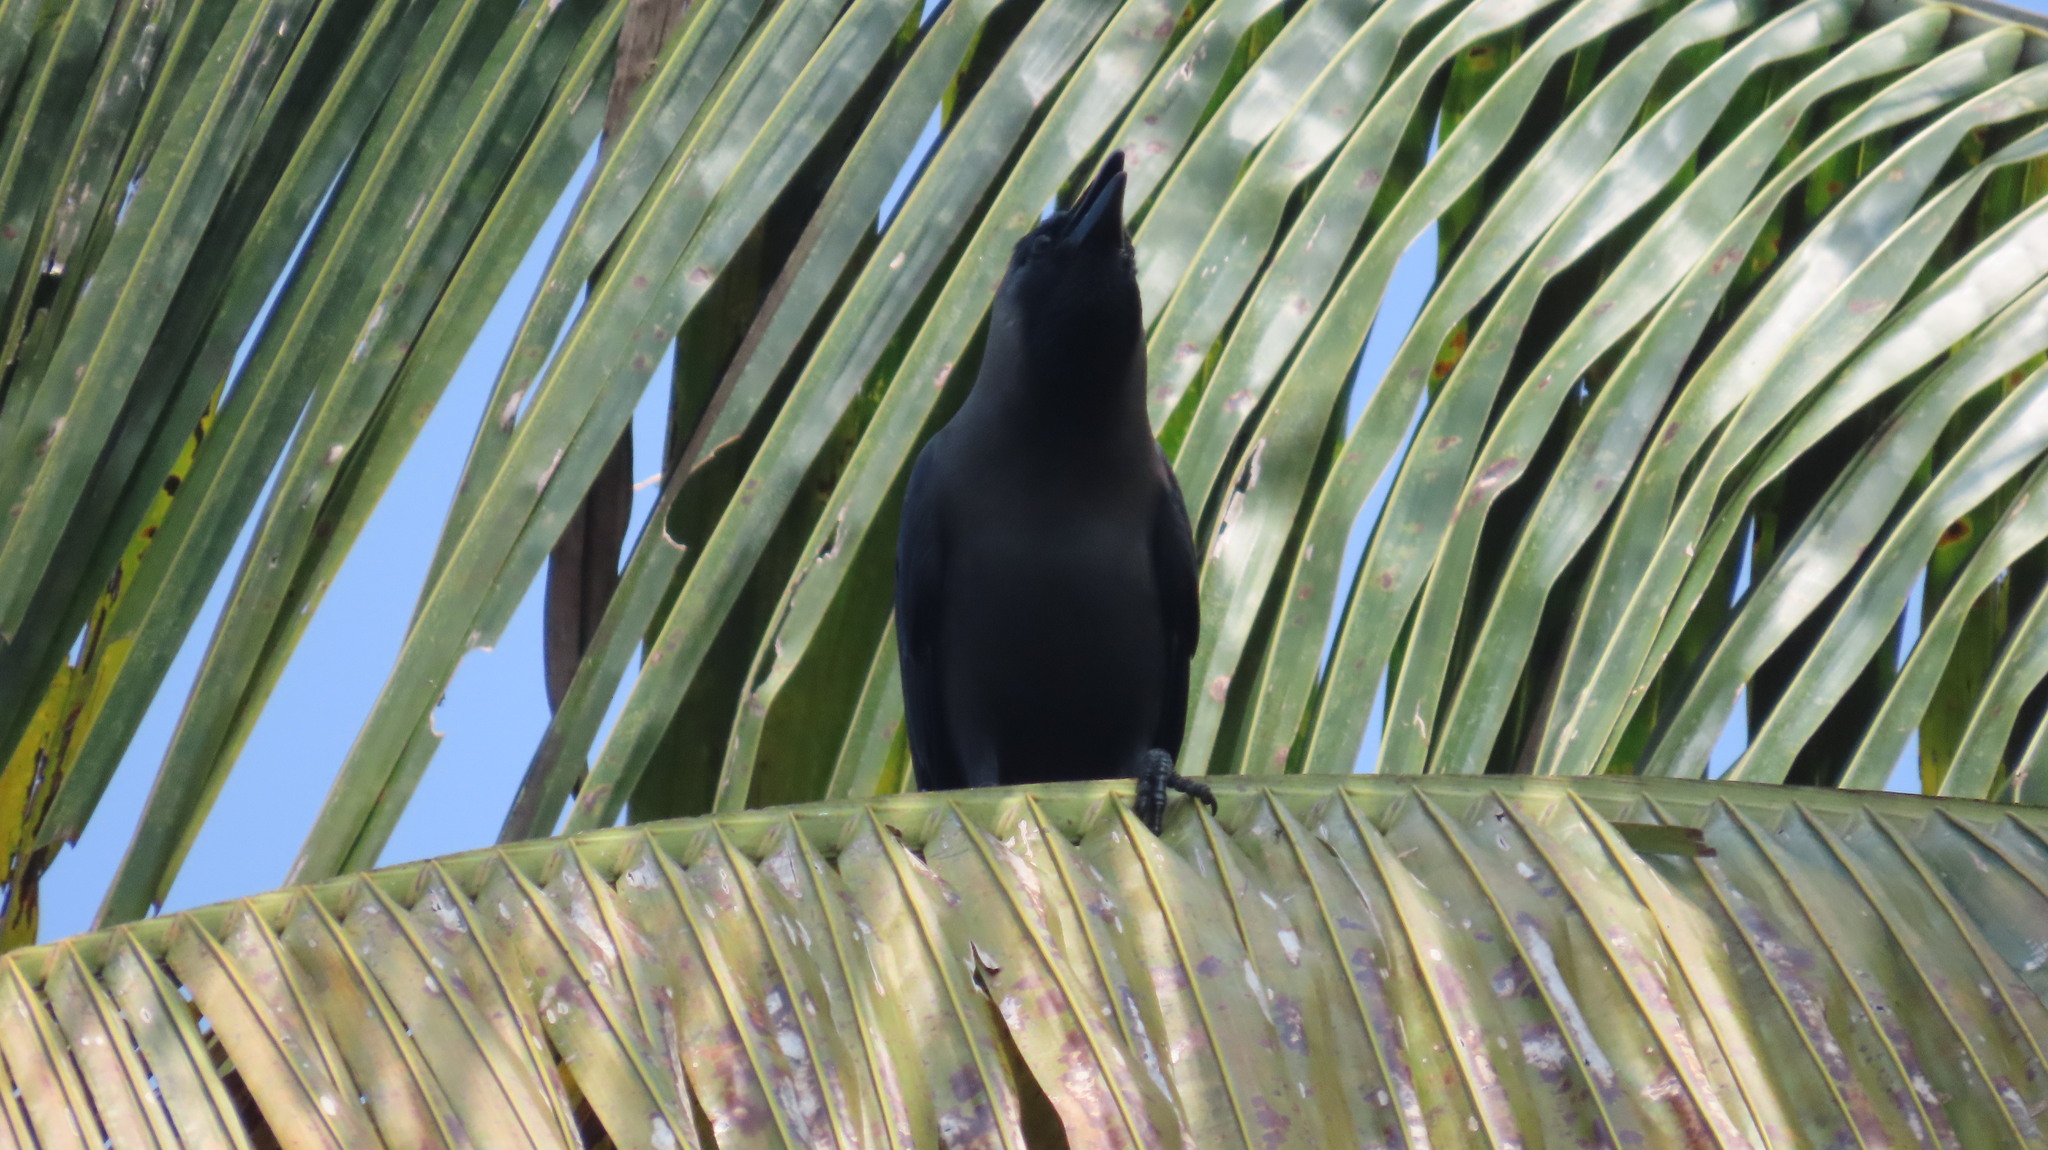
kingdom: Animalia
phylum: Chordata
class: Aves
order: Passeriformes
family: Corvidae
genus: Corvus
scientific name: Corvus splendens
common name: House crow
